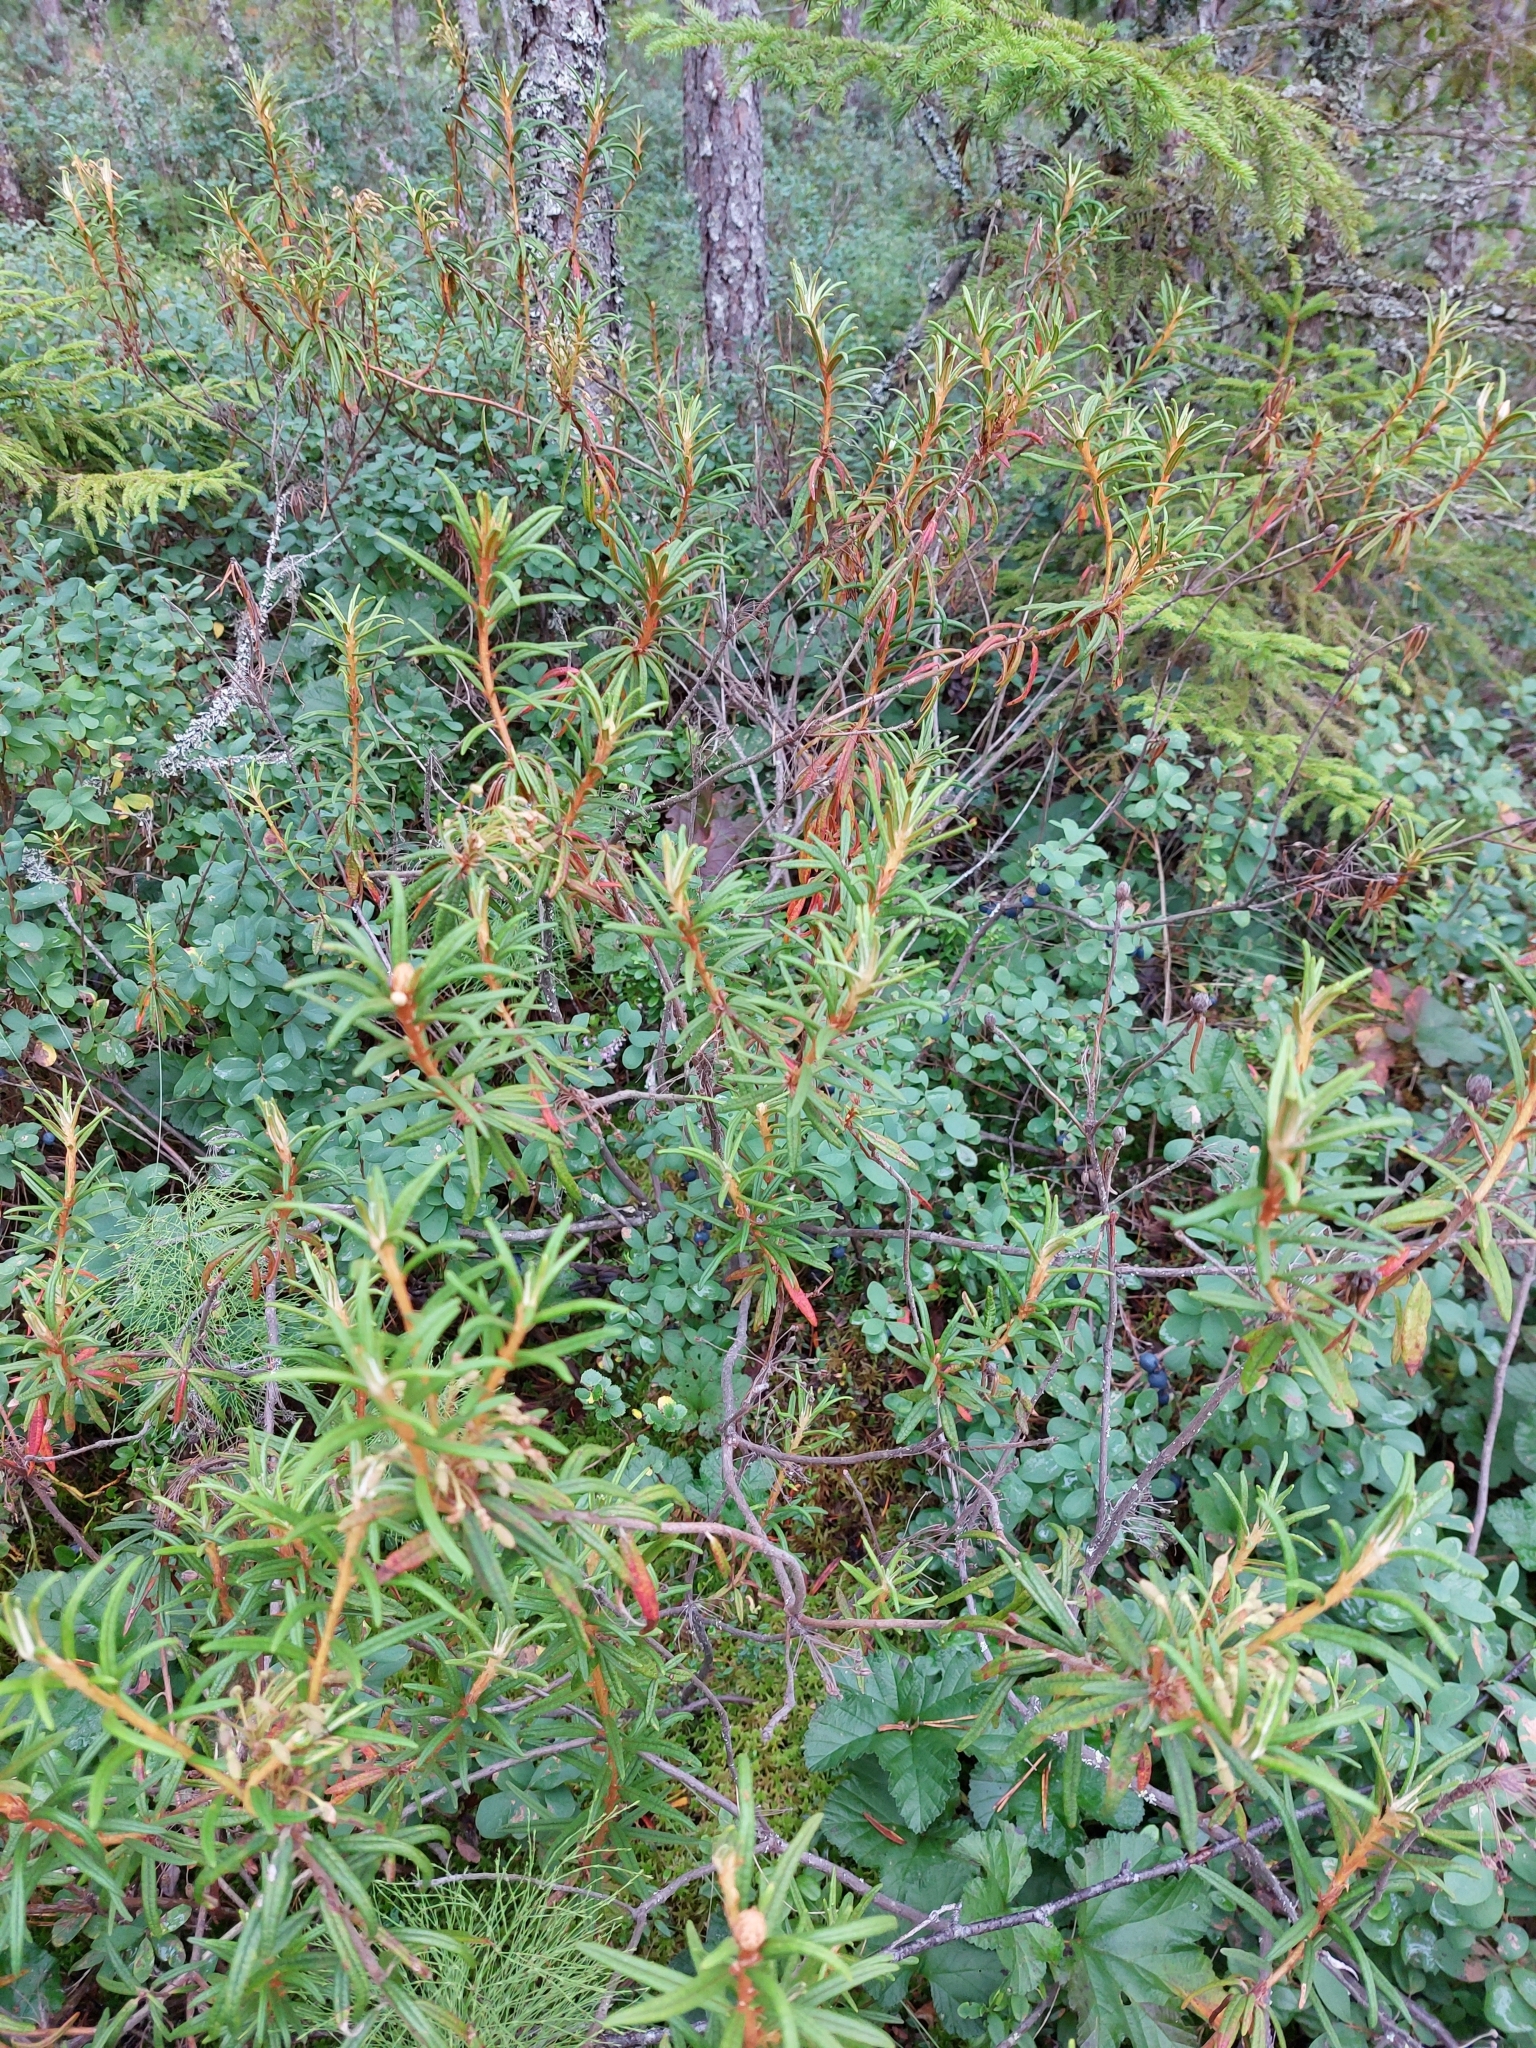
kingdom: Plantae
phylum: Tracheophyta
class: Magnoliopsida
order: Ericales
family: Ericaceae
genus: Rhododendron
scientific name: Rhododendron tomentosum
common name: Marsh labrador tea
